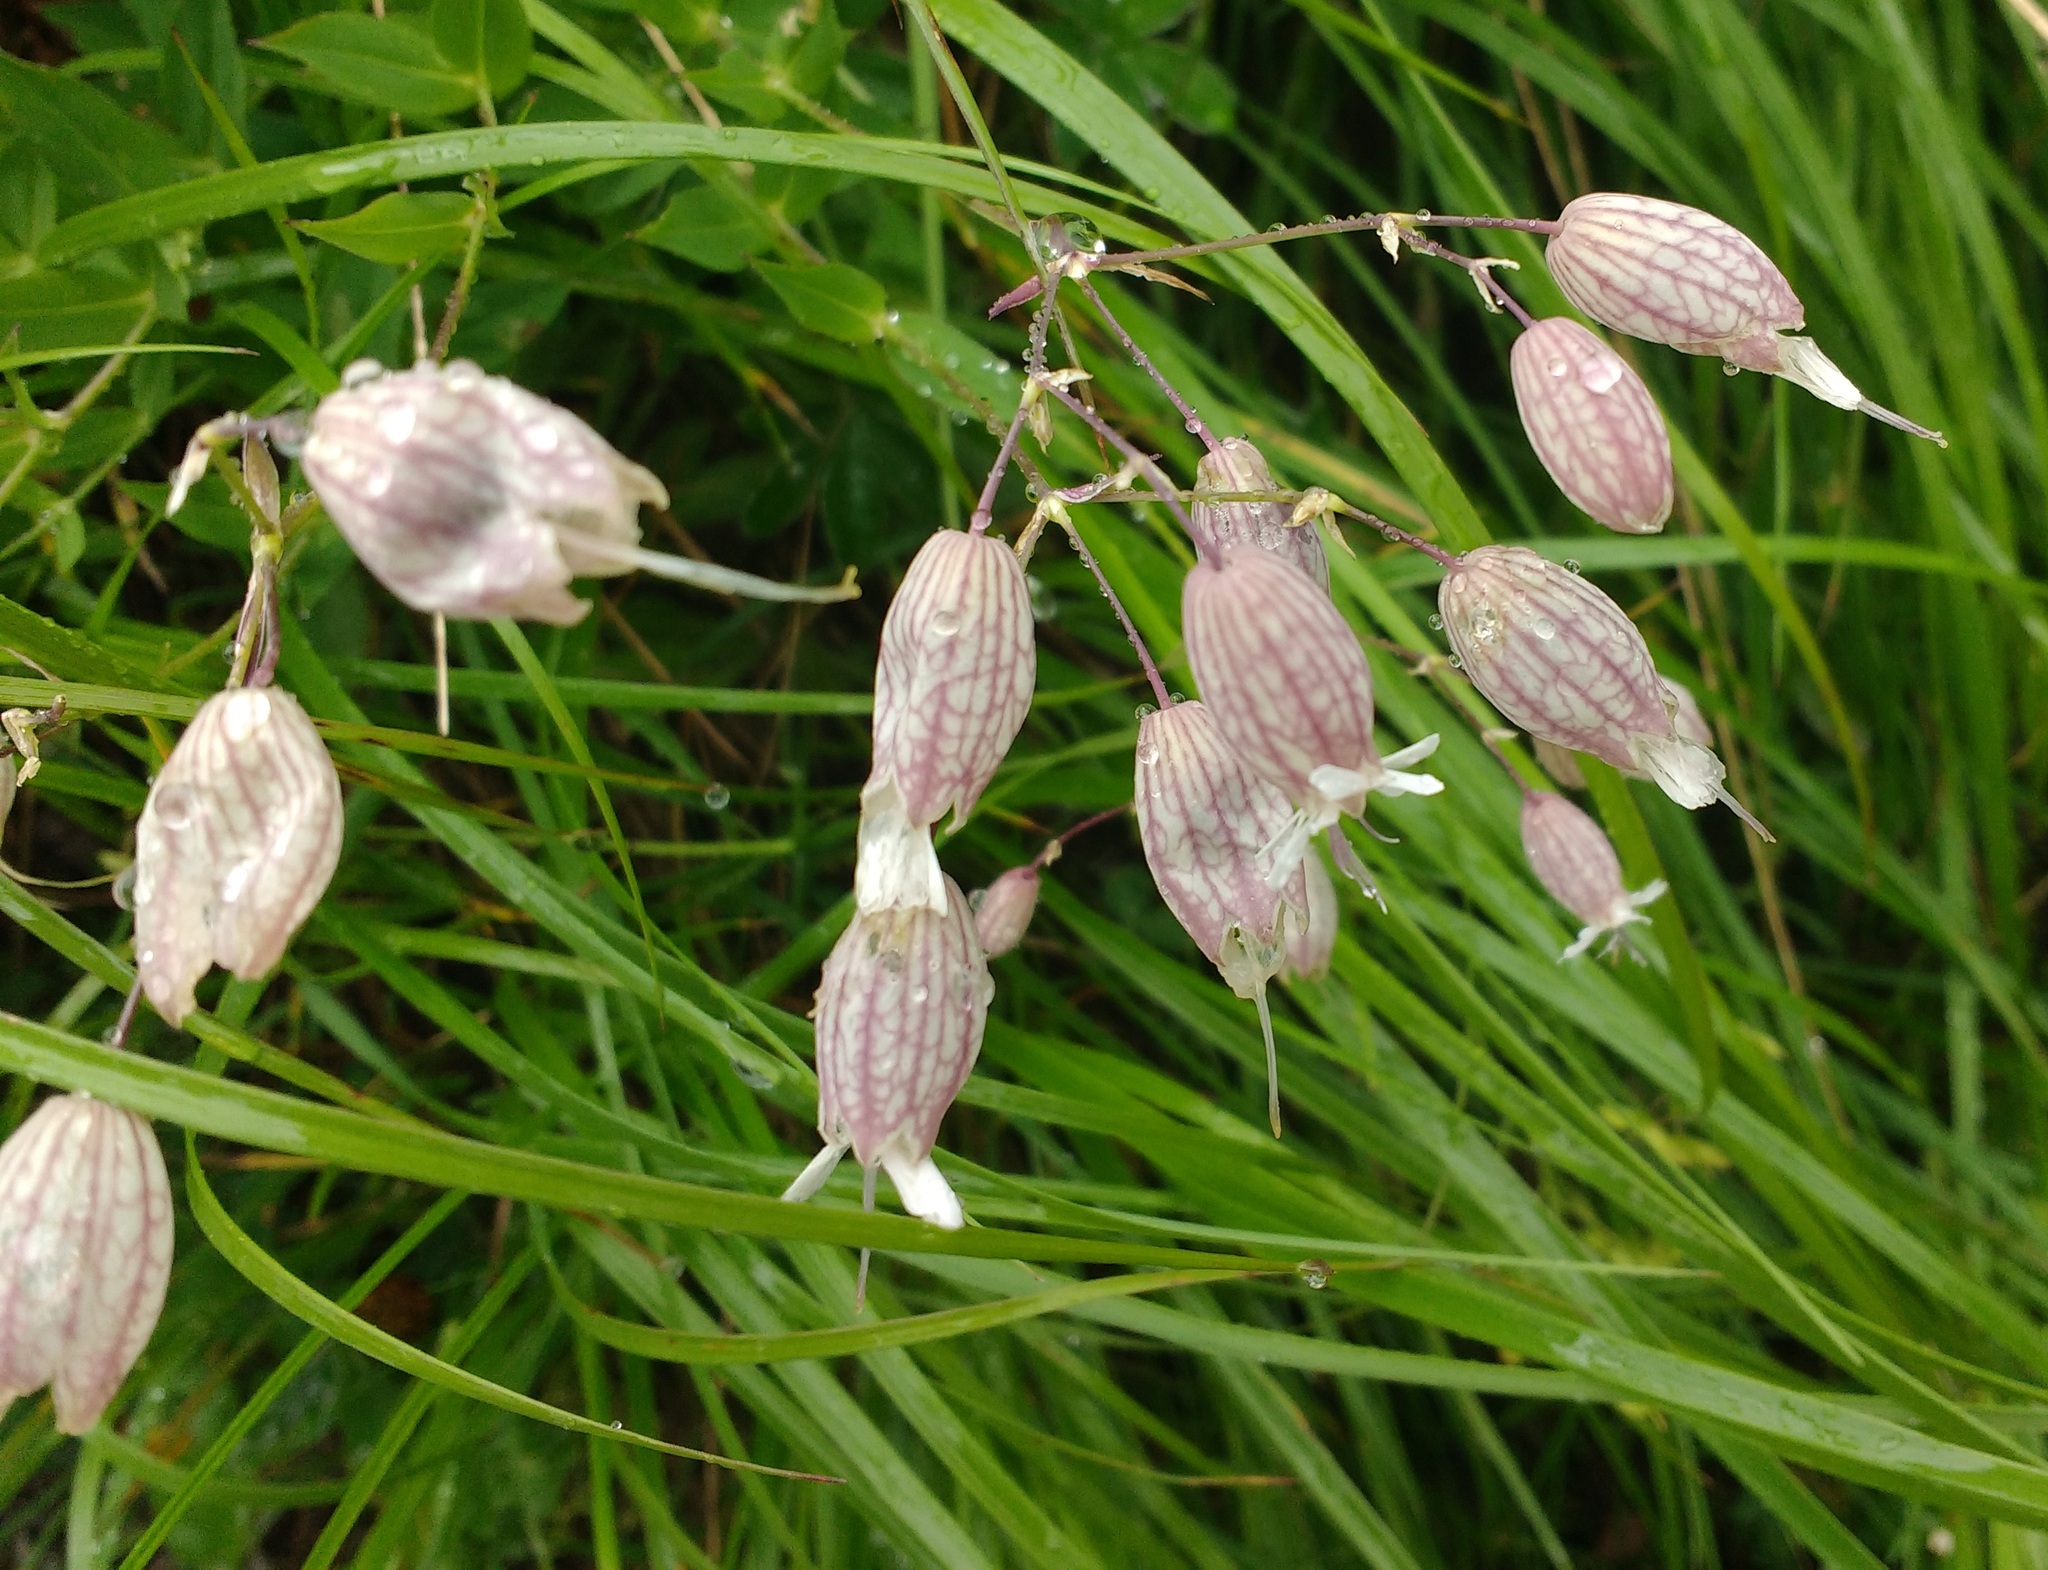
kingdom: Plantae
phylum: Tracheophyta
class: Magnoliopsida
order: Caryophyllales
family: Caryophyllaceae
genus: Silene
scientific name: Silene vulgaris
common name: Bladder campion
